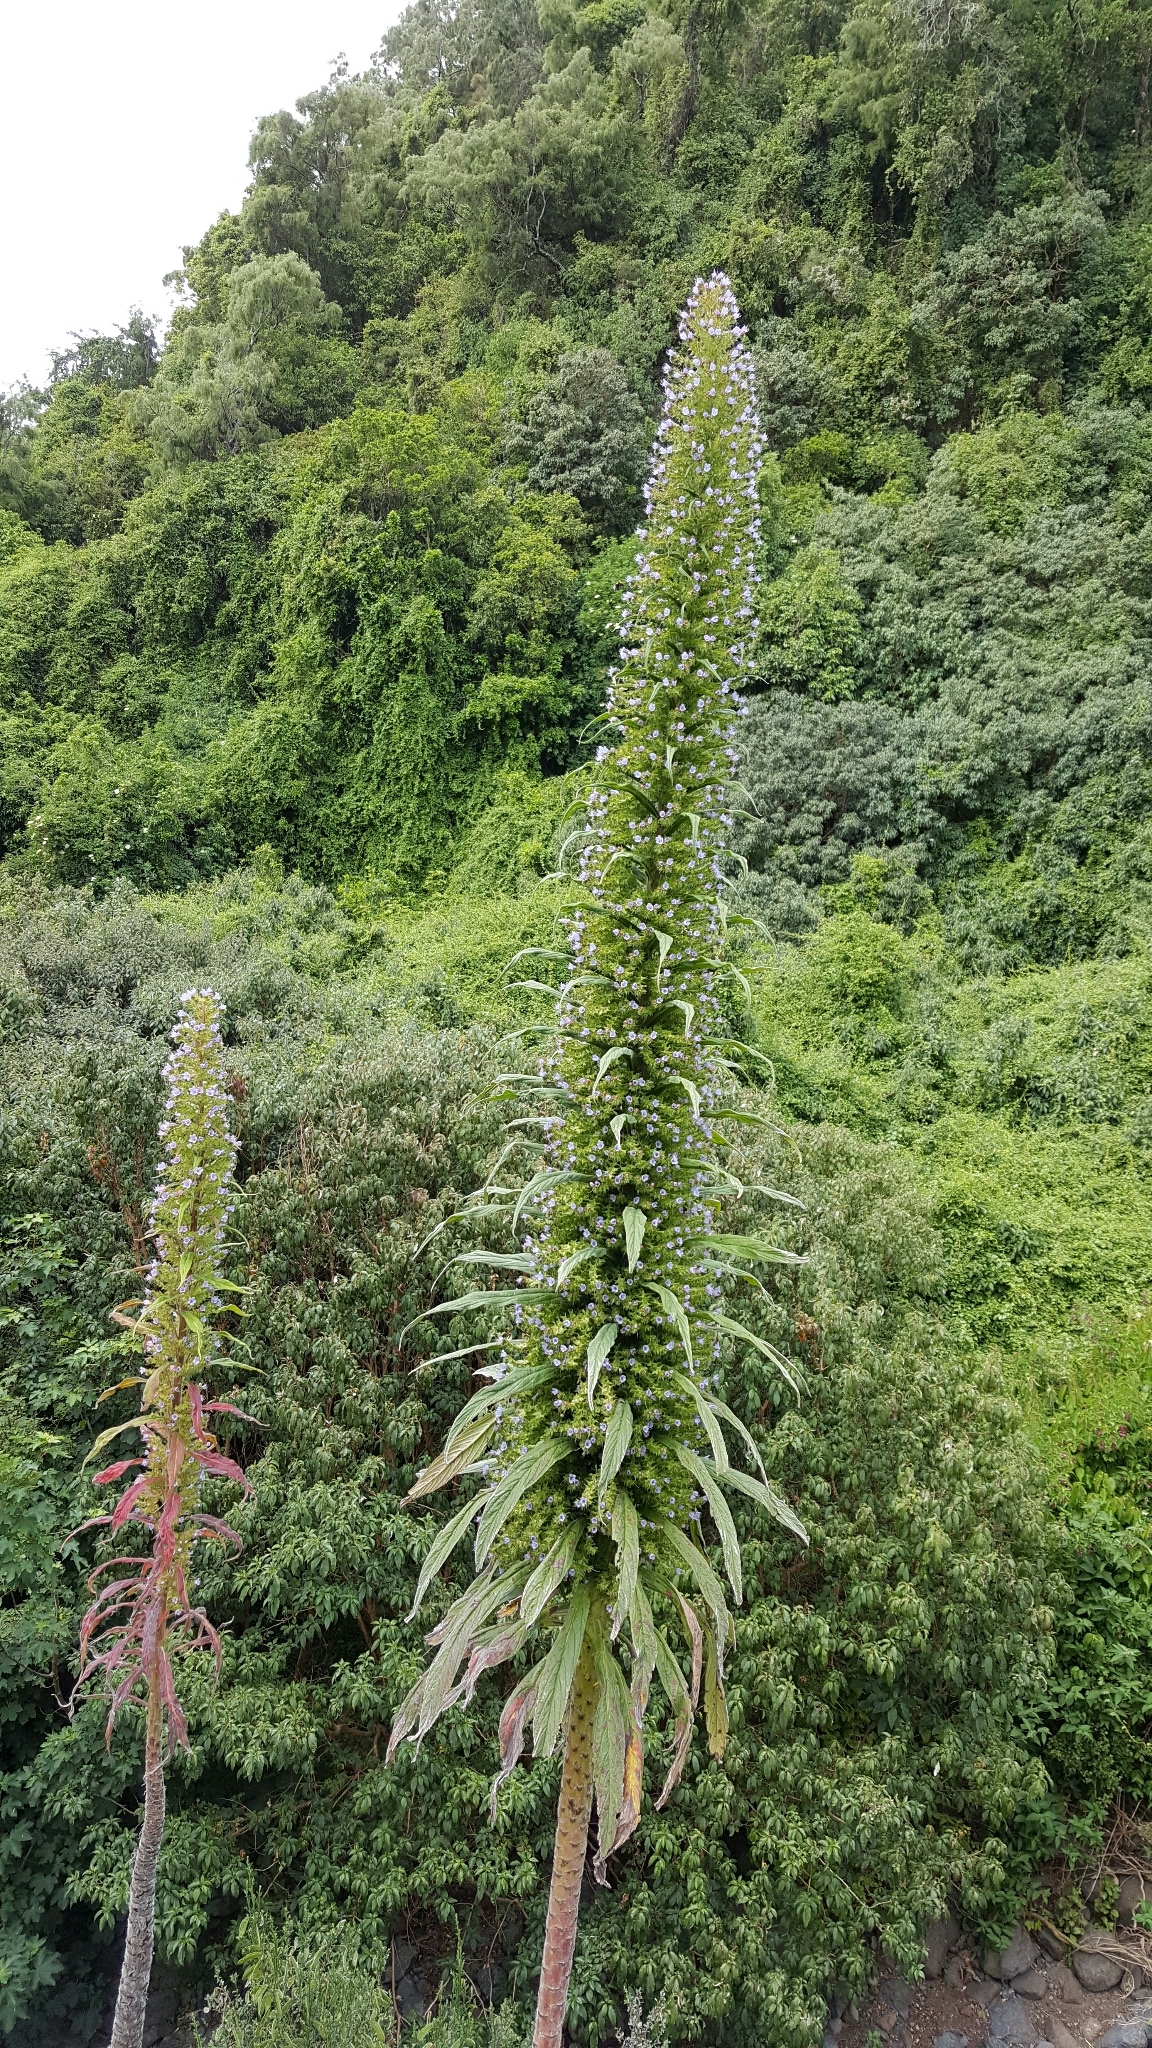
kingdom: Plantae
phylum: Tracheophyta
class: Magnoliopsida
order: Boraginales
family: Boraginaceae
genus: Echium
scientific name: Echium pininana
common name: Giant viper's-bugloss
